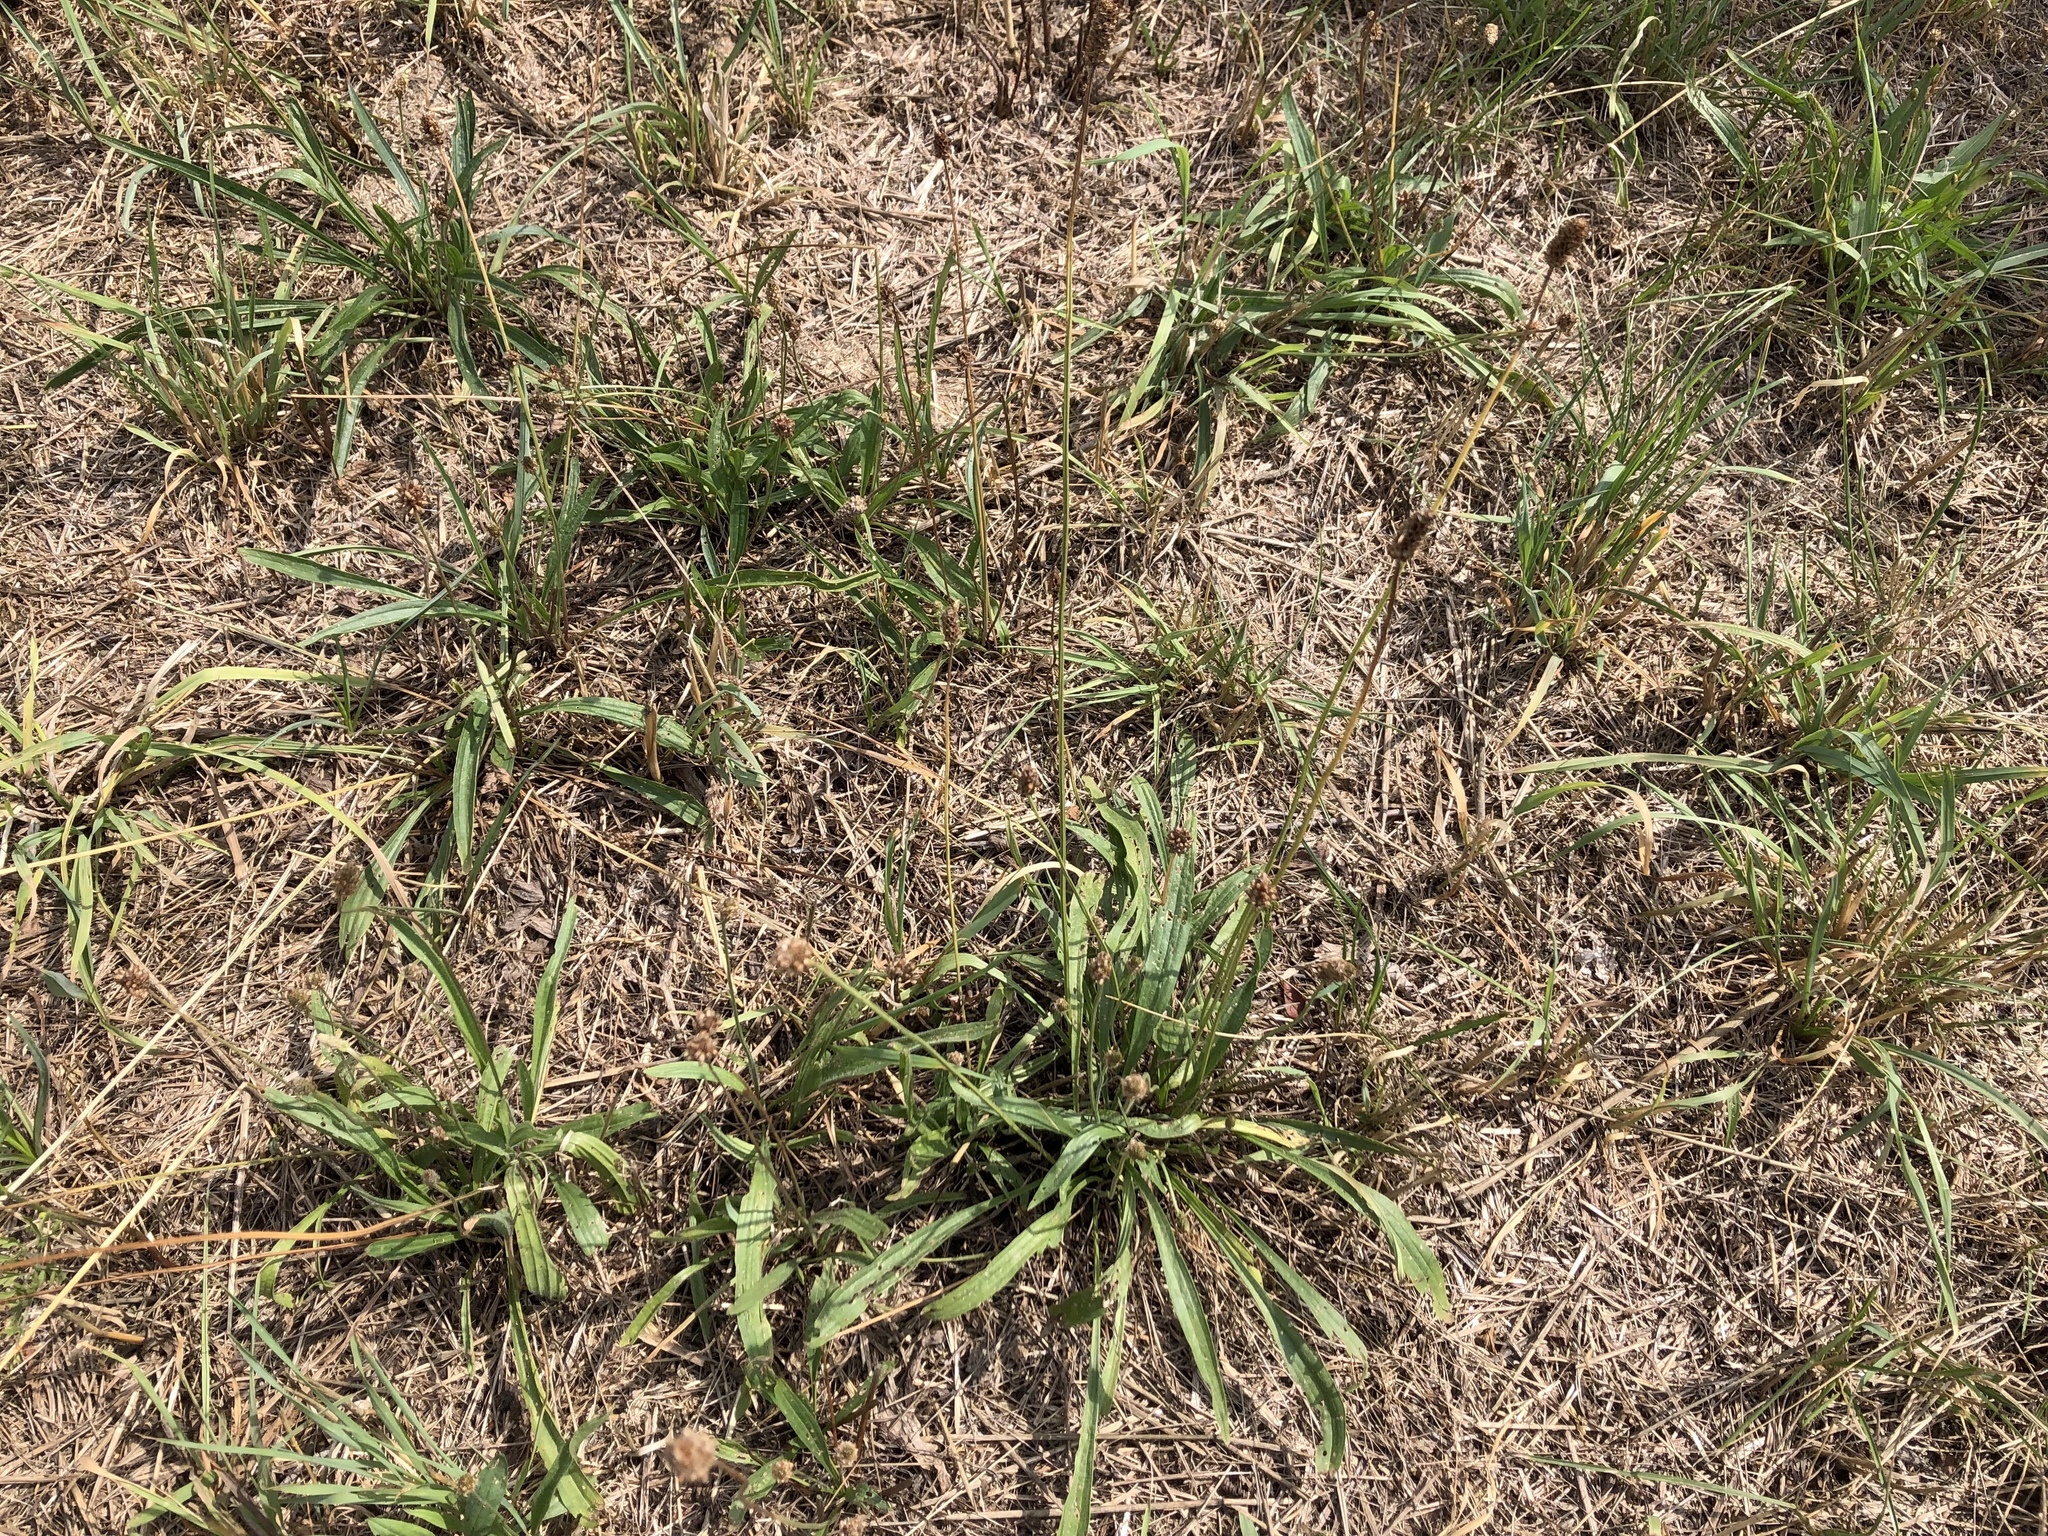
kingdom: Plantae
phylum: Tracheophyta
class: Magnoliopsida
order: Lamiales
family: Plantaginaceae
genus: Plantago
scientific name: Plantago lanceolata
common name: Ribwort plantain
